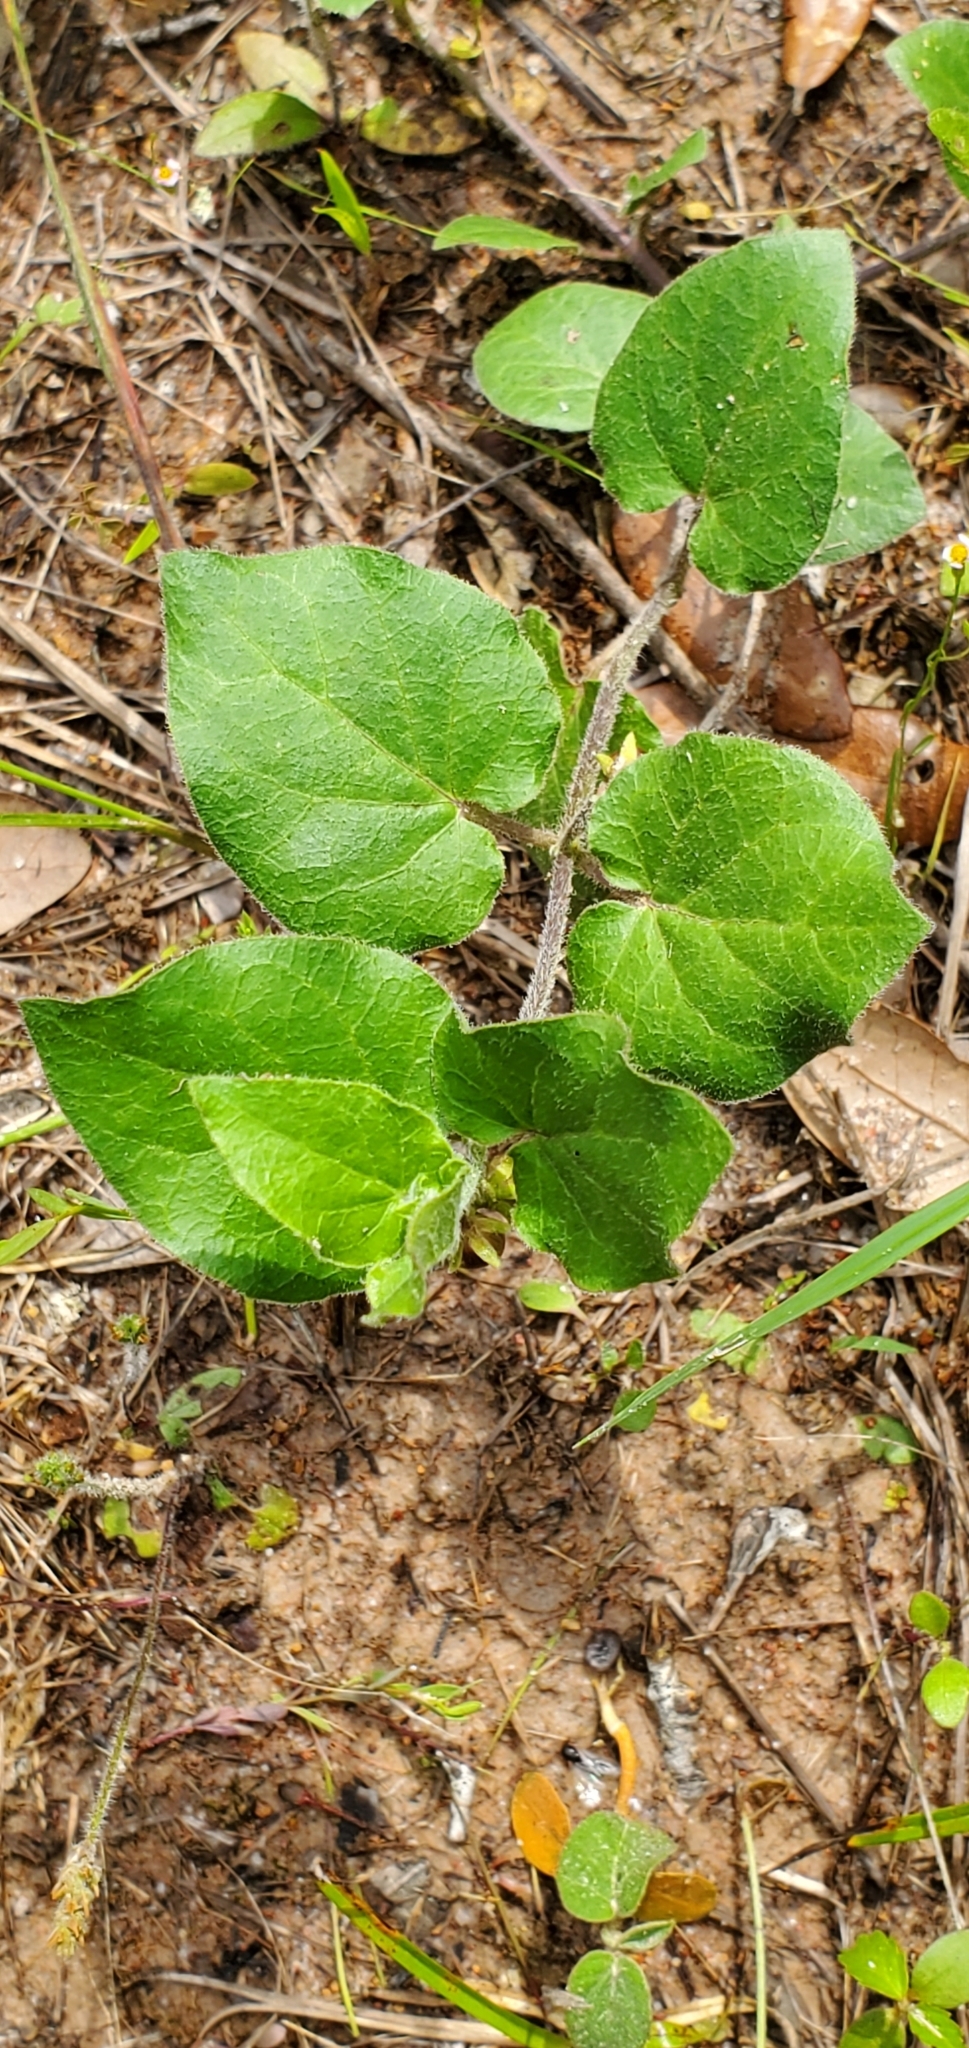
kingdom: Plantae
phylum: Tracheophyta
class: Magnoliopsida
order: Gentianales
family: Apocynaceae
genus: Matelea
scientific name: Matelea cynanchoides
